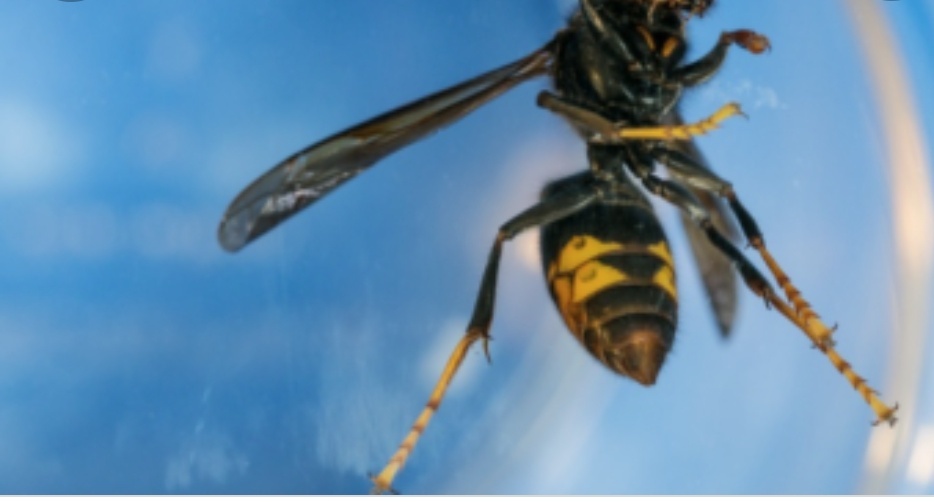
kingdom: Animalia
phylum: Arthropoda
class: Insecta
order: Hymenoptera
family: Vespidae
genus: Vespa
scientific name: Vespa velutina
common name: Asian hornet
